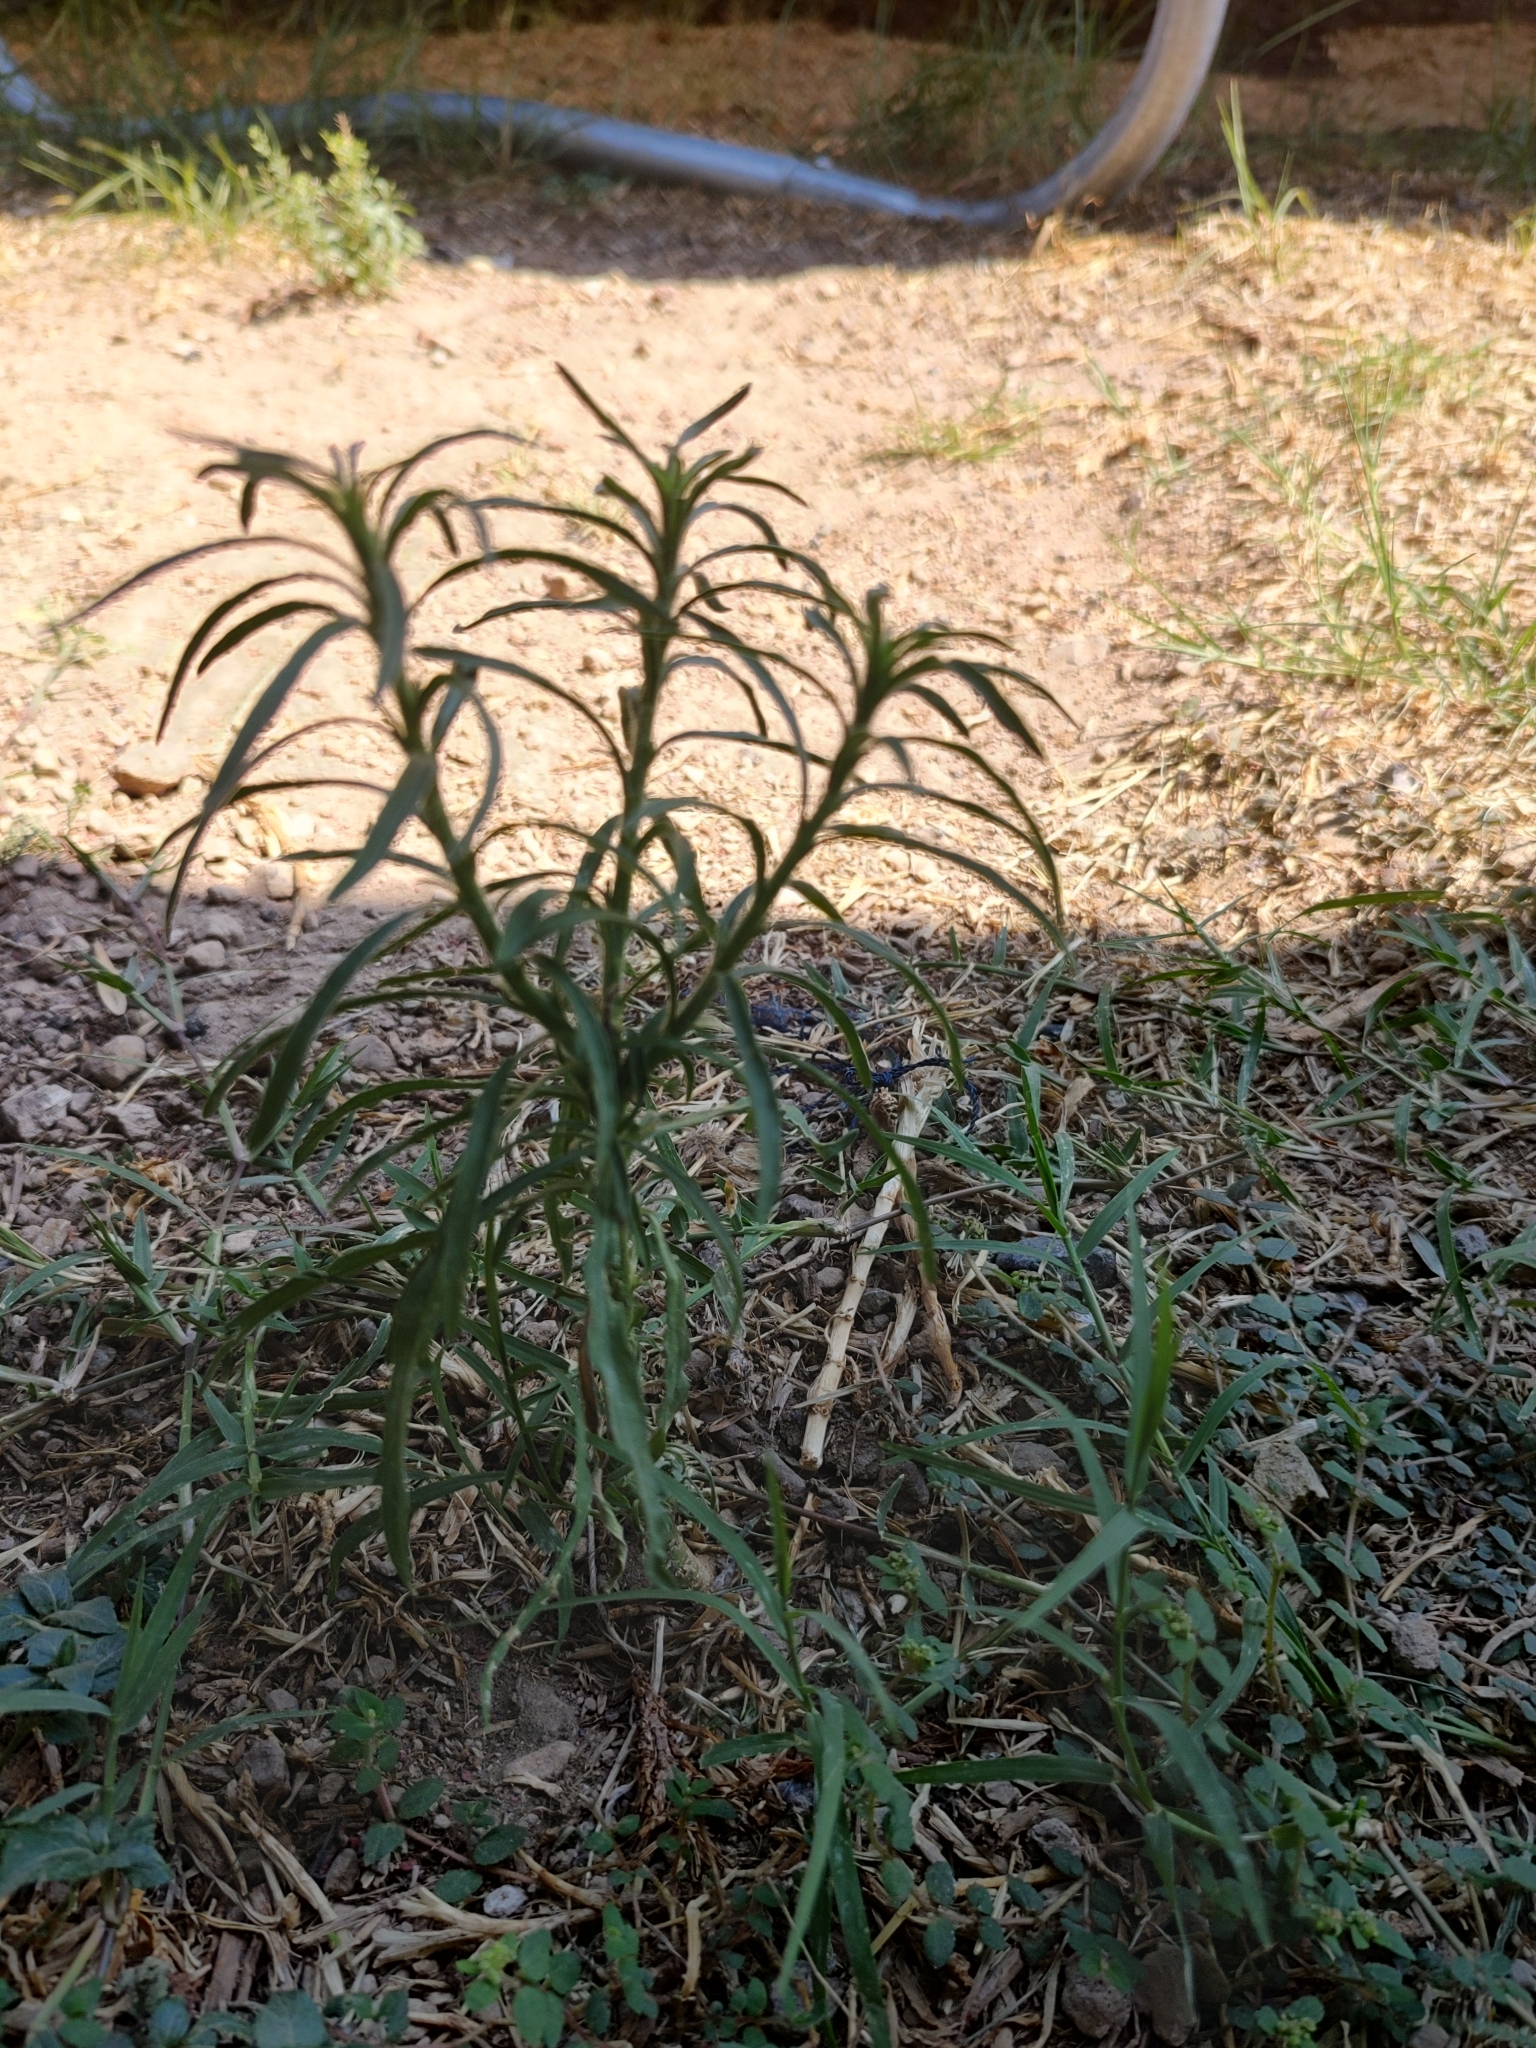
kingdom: Plantae
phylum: Tracheophyta
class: Magnoliopsida
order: Asterales
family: Asteraceae
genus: Erigeron
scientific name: Erigeron bonariensis
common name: Argentine fleabane
